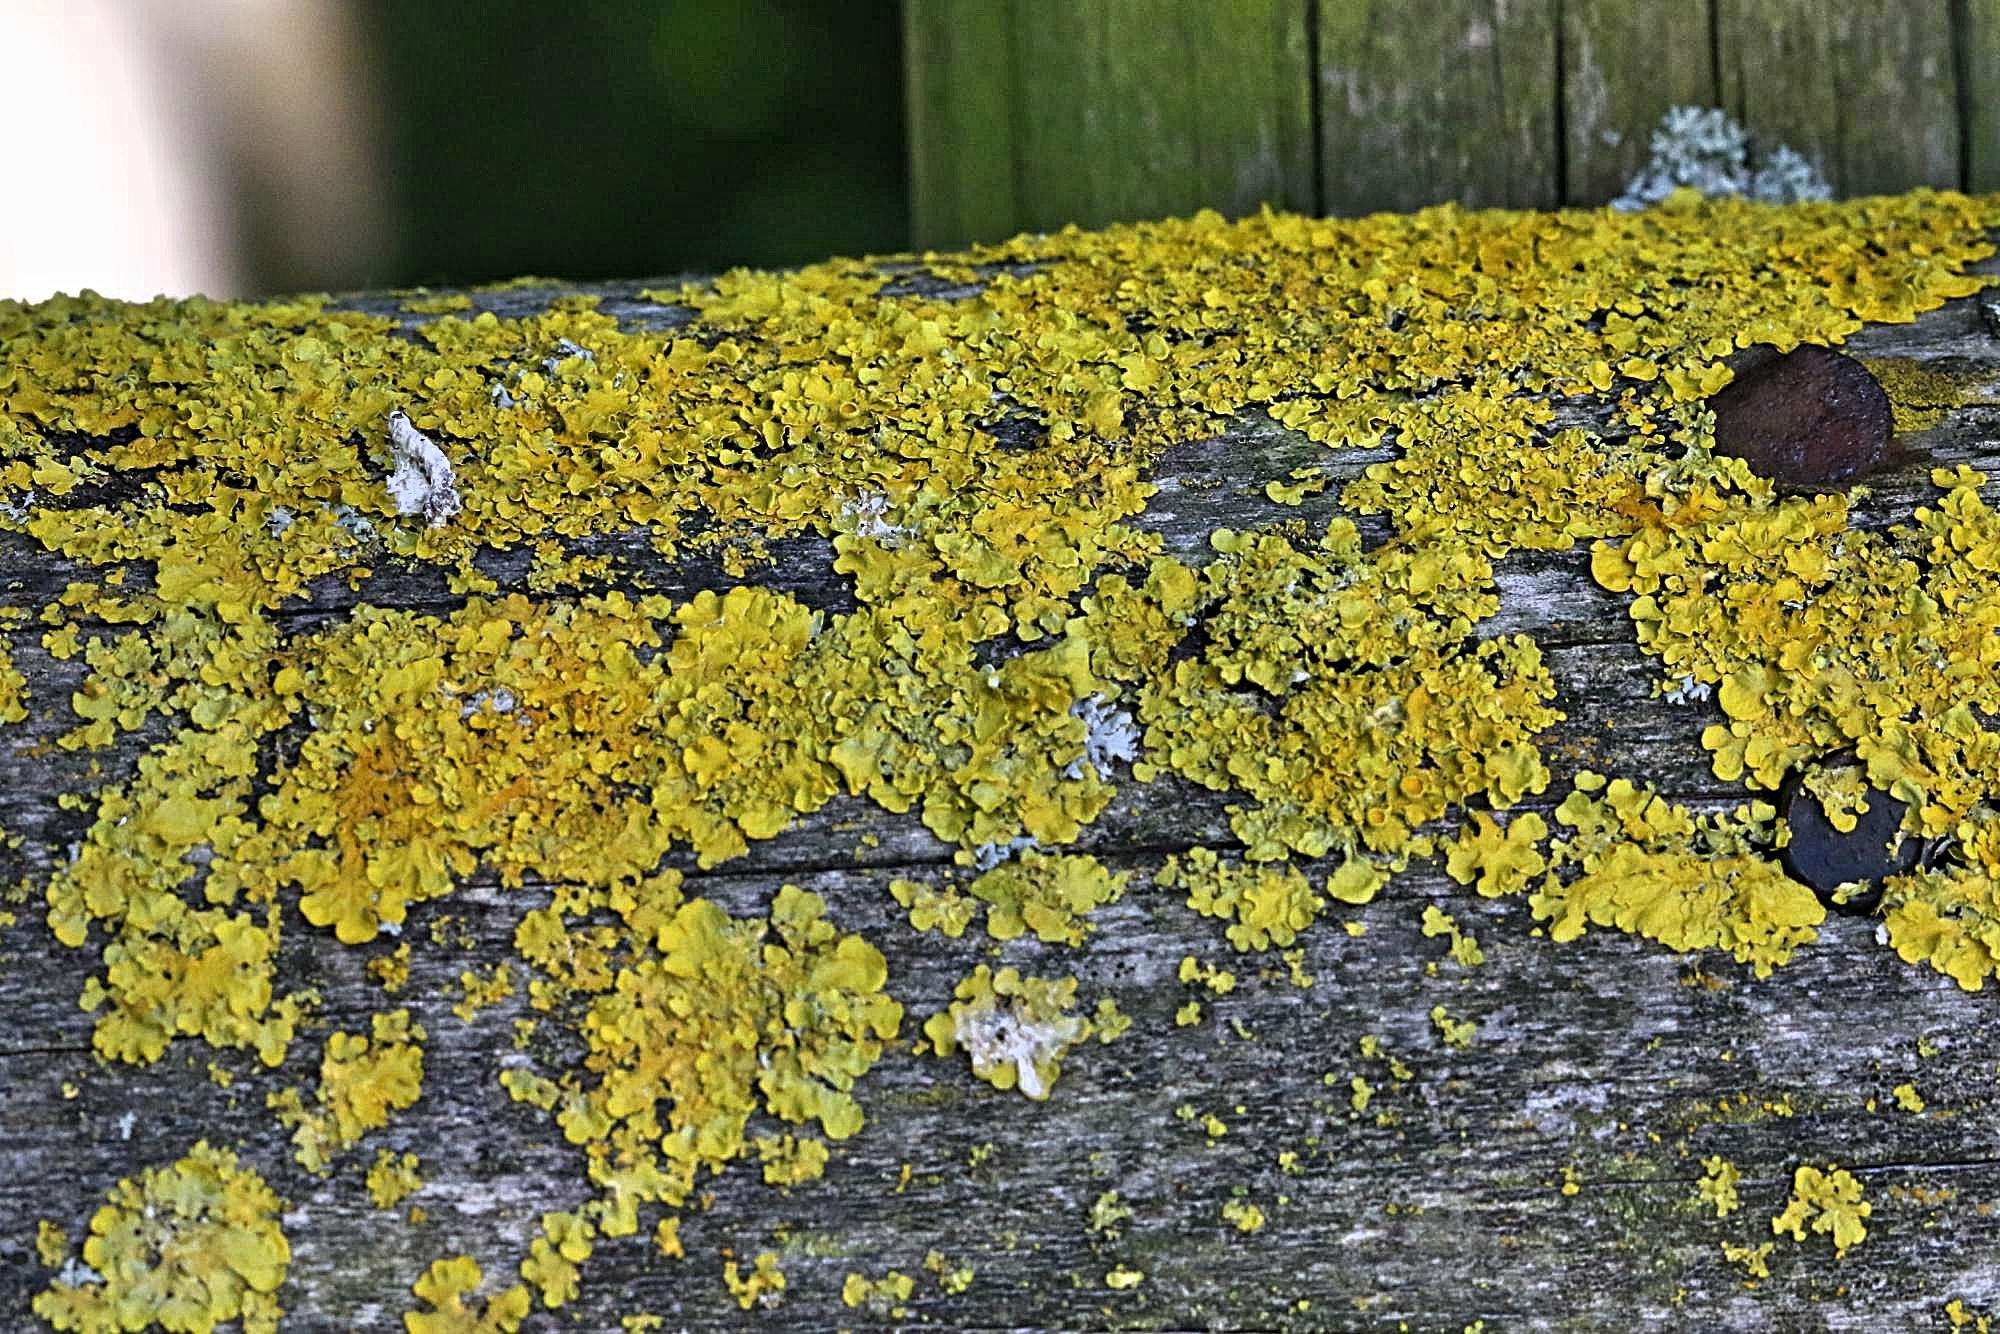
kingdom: Fungi
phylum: Ascomycota
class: Lecanoromycetes
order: Teloschistales
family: Teloschistaceae
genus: Xanthoria
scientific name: Xanthoria parietina
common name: Common orange lichen
